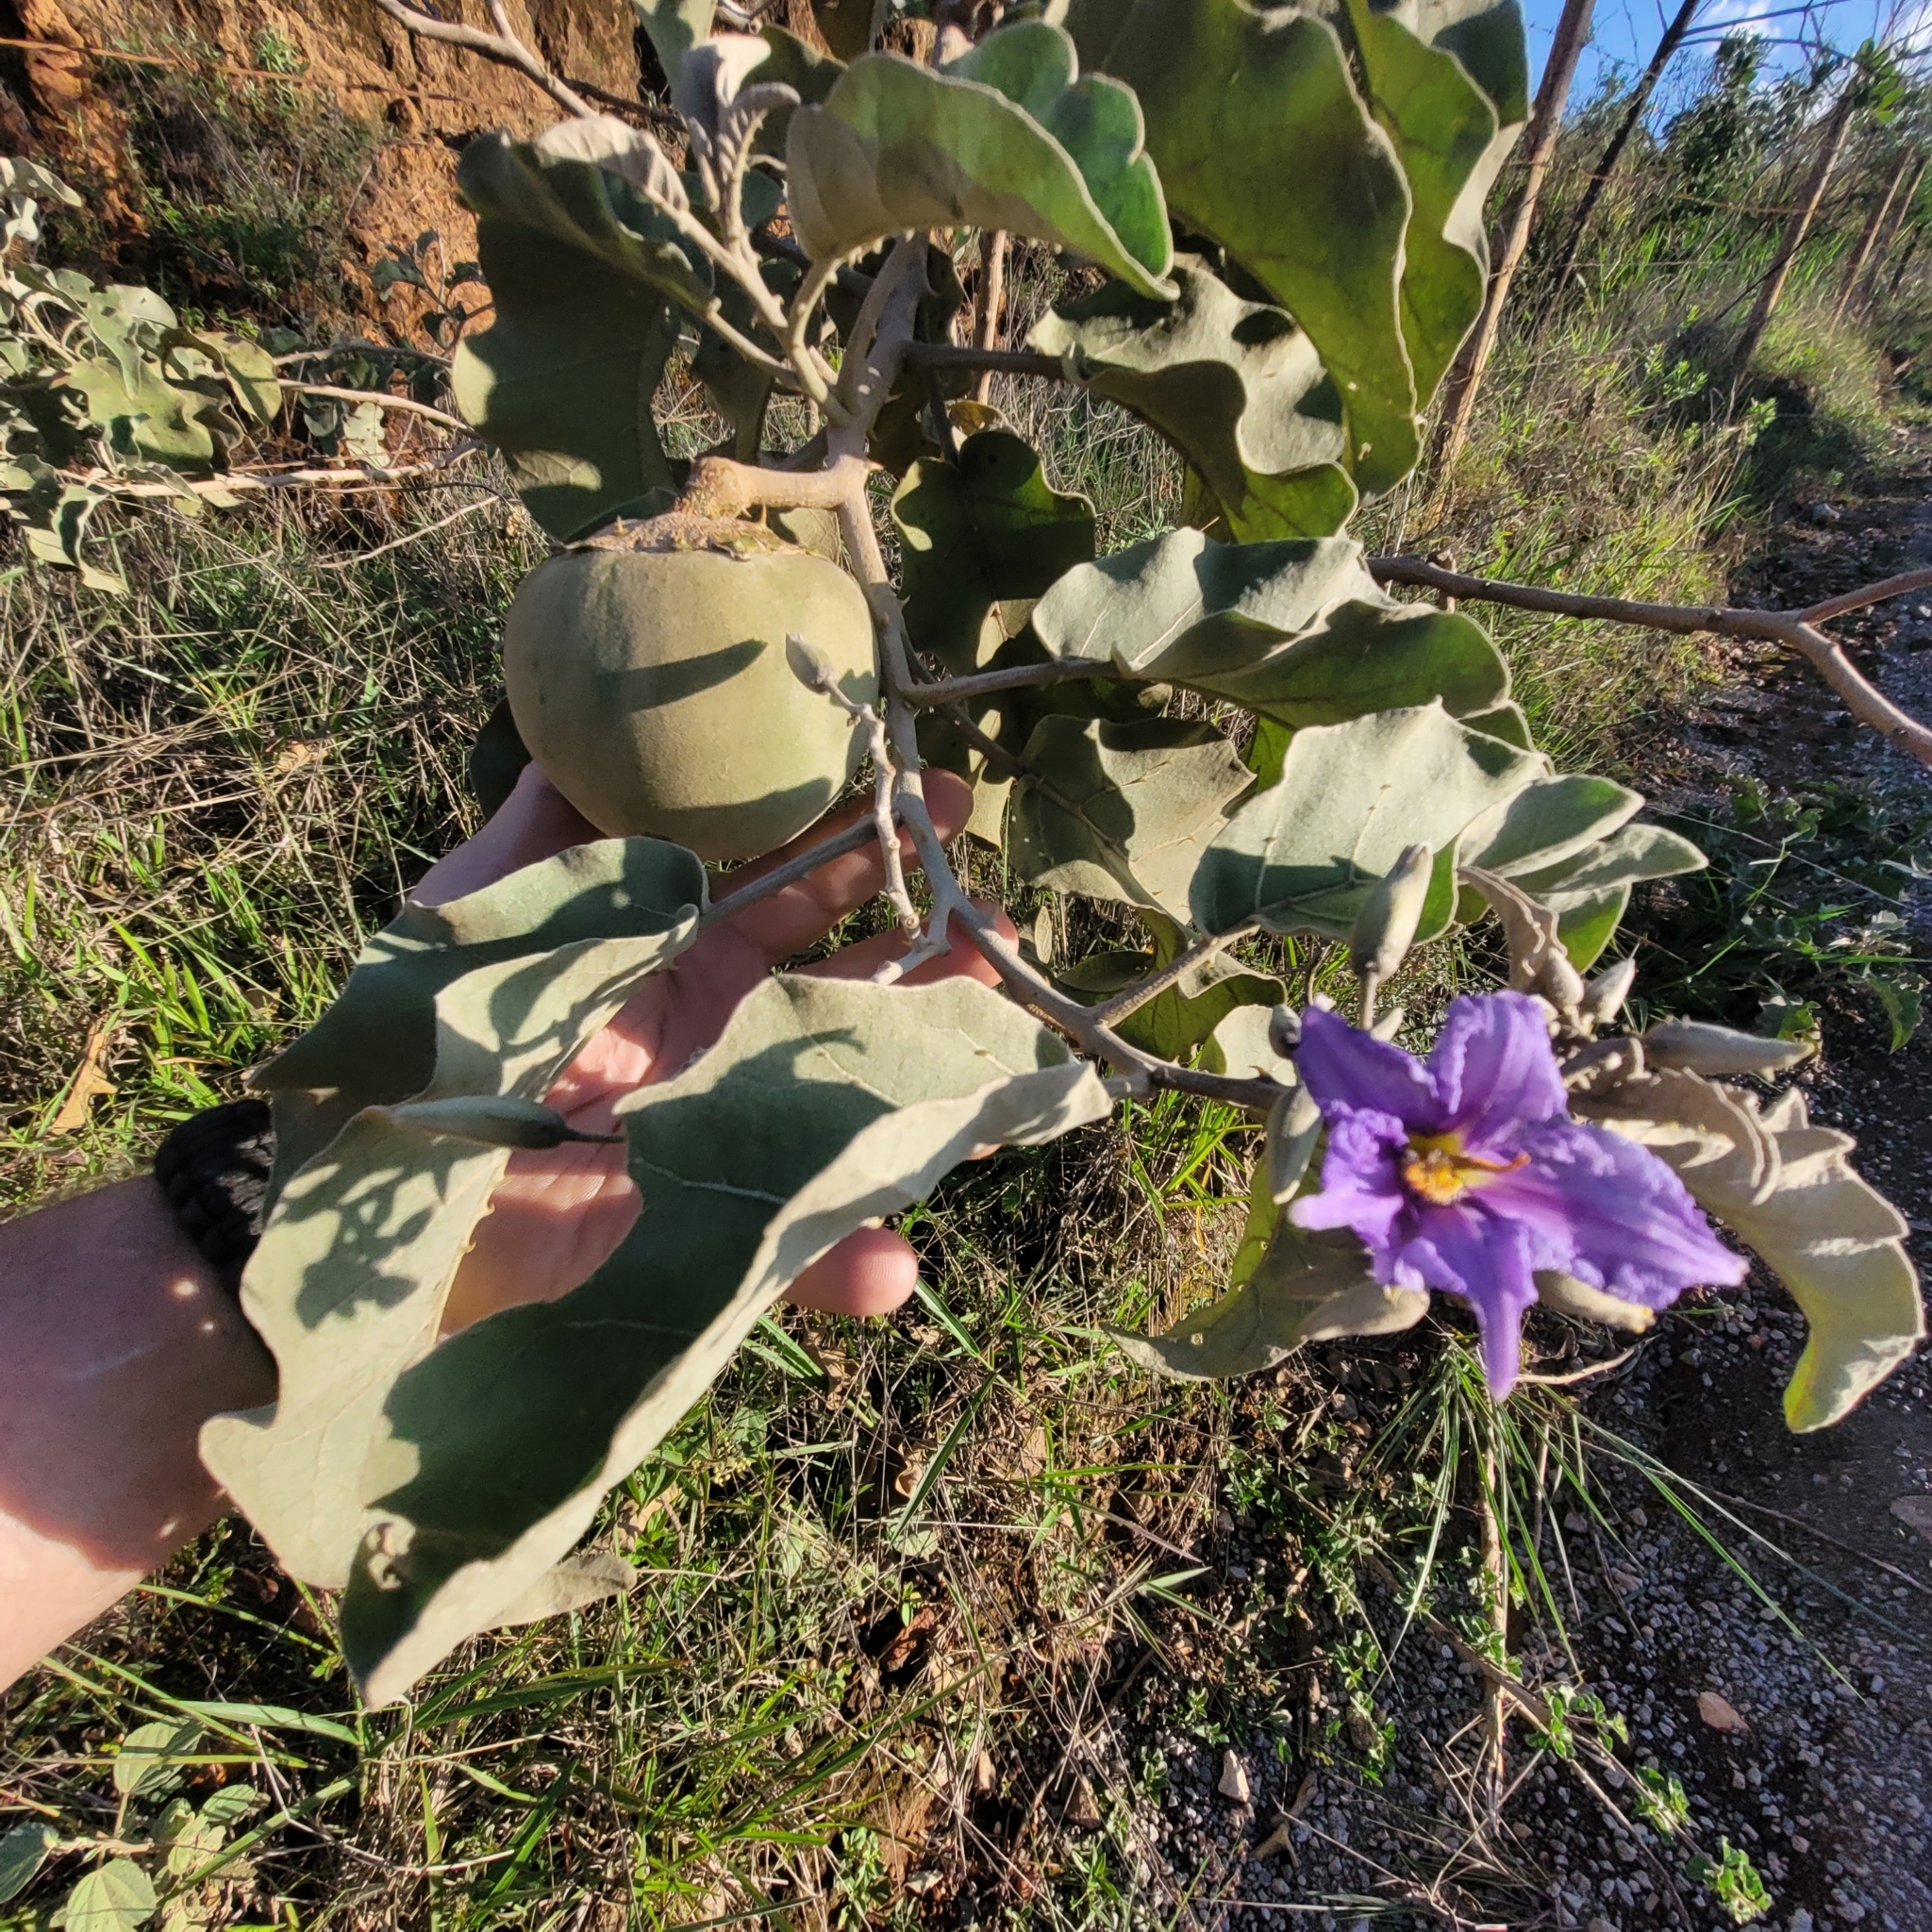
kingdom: Plantae
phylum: Tracheophyta
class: Magnoliopsida
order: Solanales
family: Solanaceae
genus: Solanum
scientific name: Solanum lycocarpum
